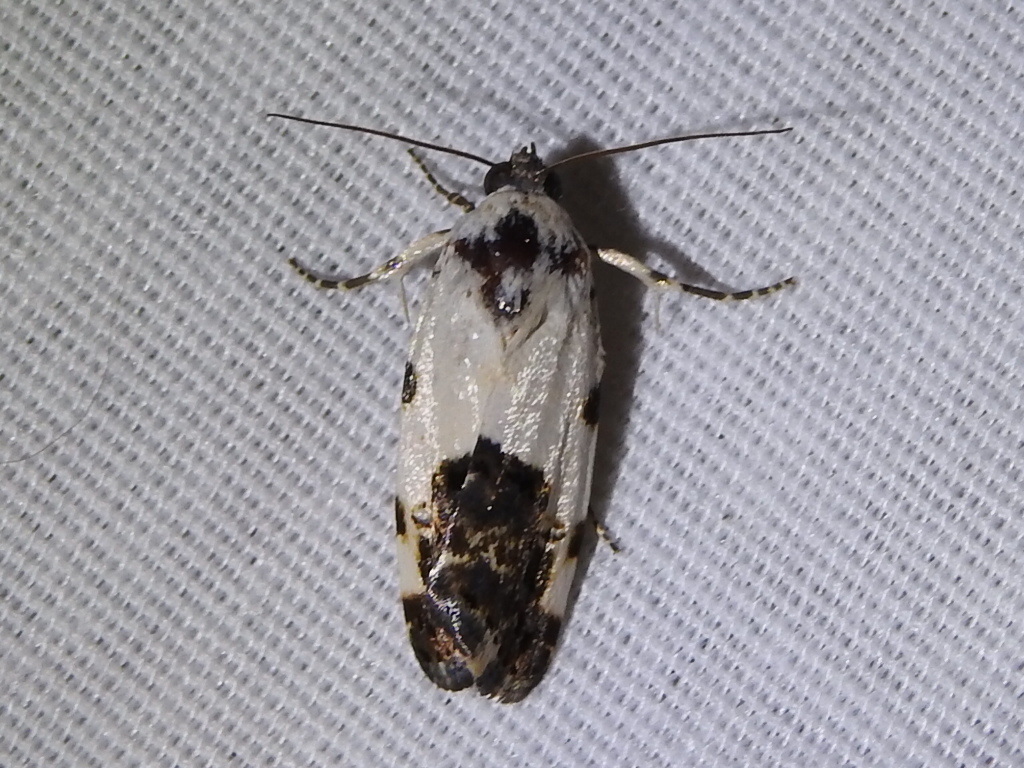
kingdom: Animalia
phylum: Arthropoda
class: Insecta
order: Lepidoptera
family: Noctuidae
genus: Acontia
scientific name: Acontia quadriplaga
